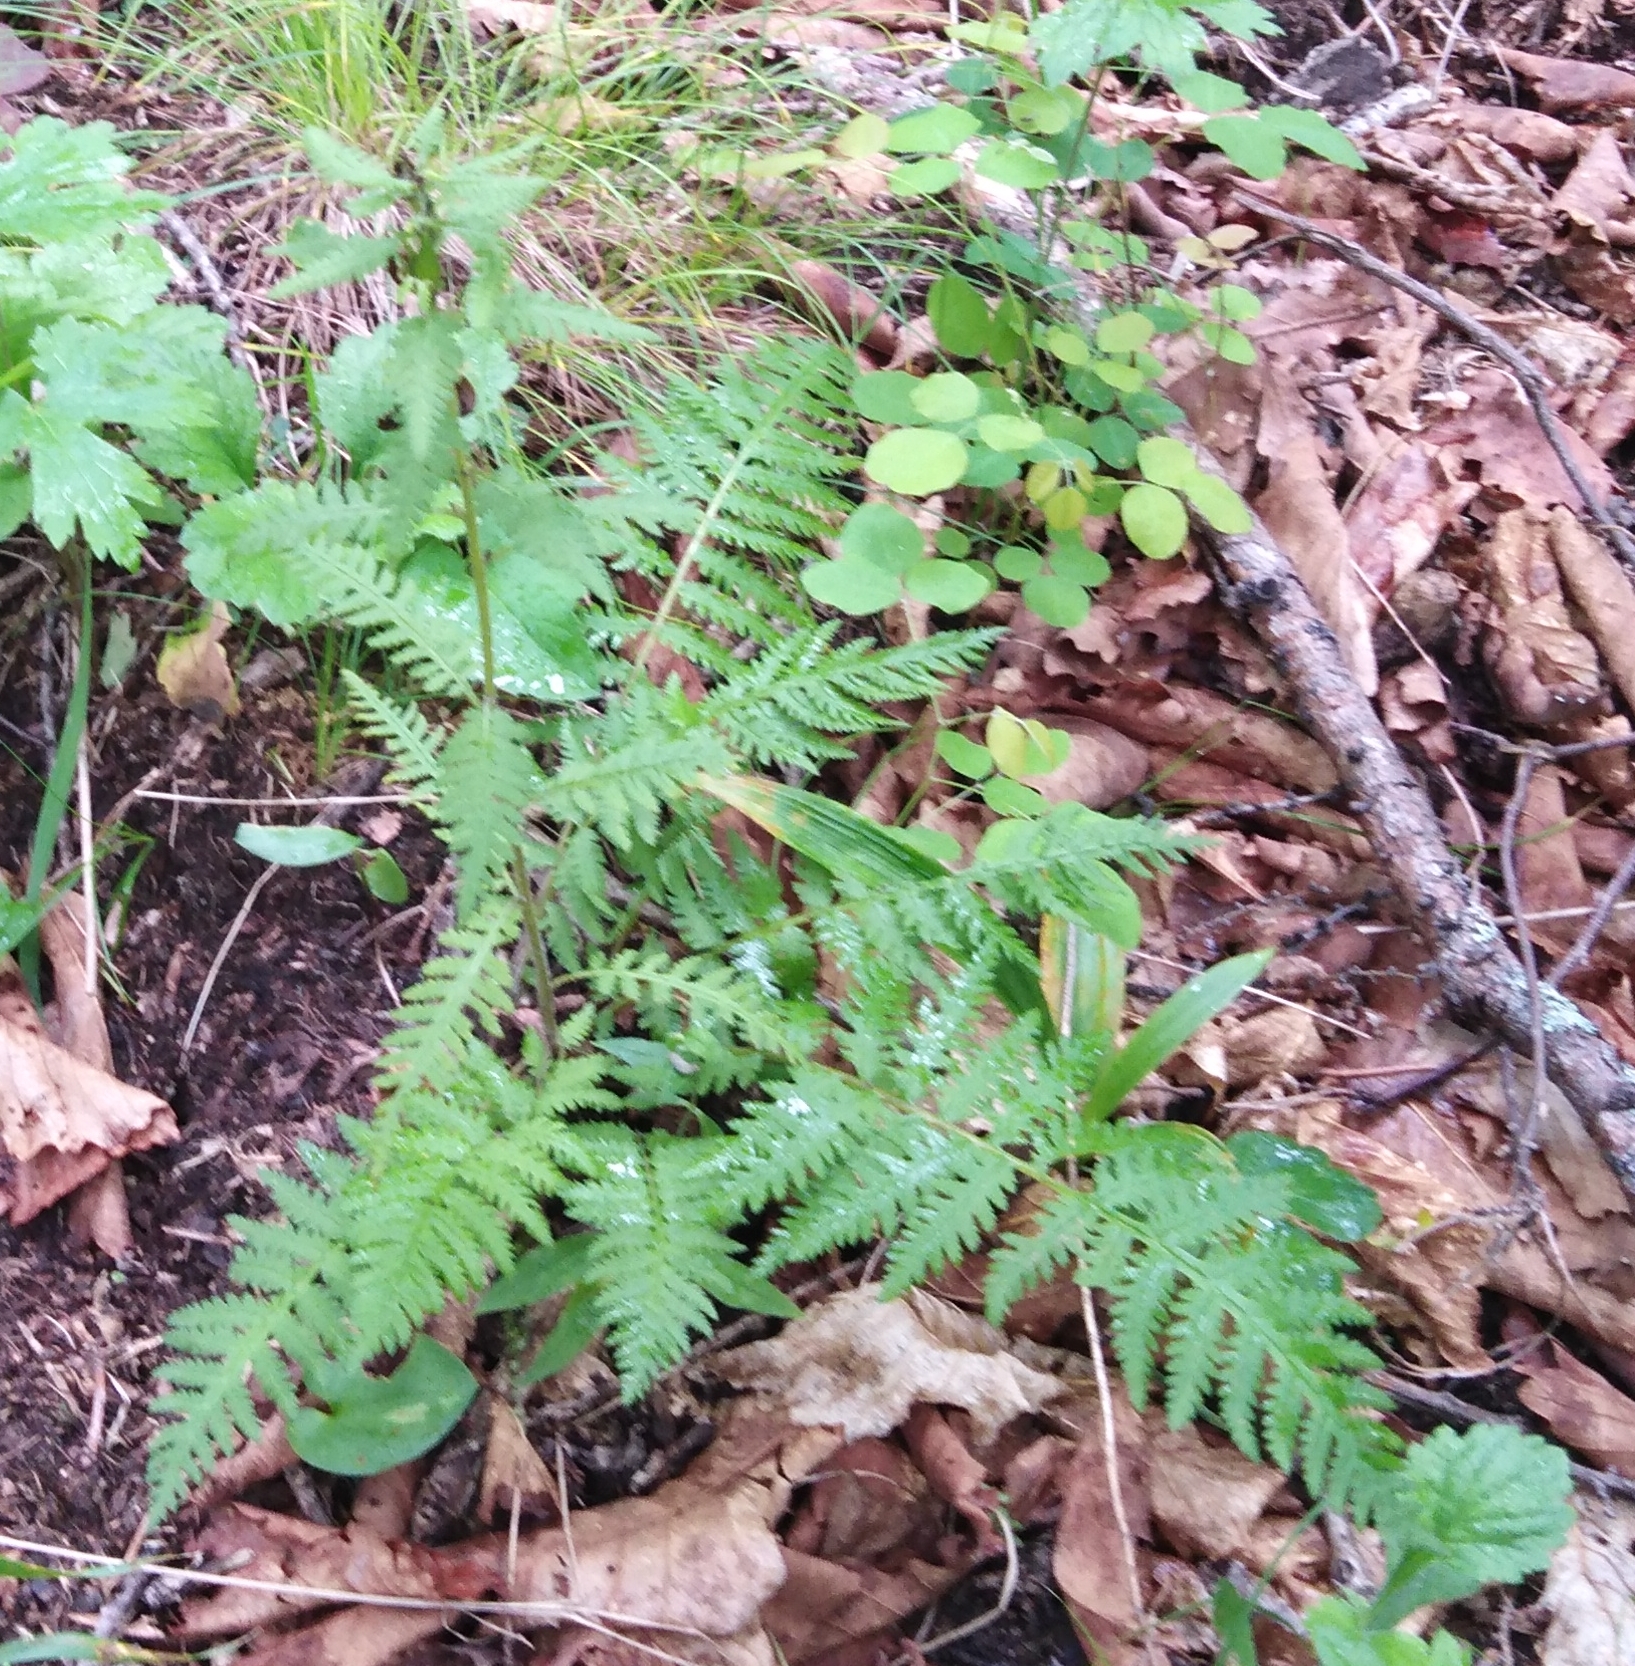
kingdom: Plantae
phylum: Tracheophyta
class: Magnoliopsida
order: Lamiales
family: Orobanchaceae
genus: Pedicularis
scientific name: Pedicularis mandshurica
